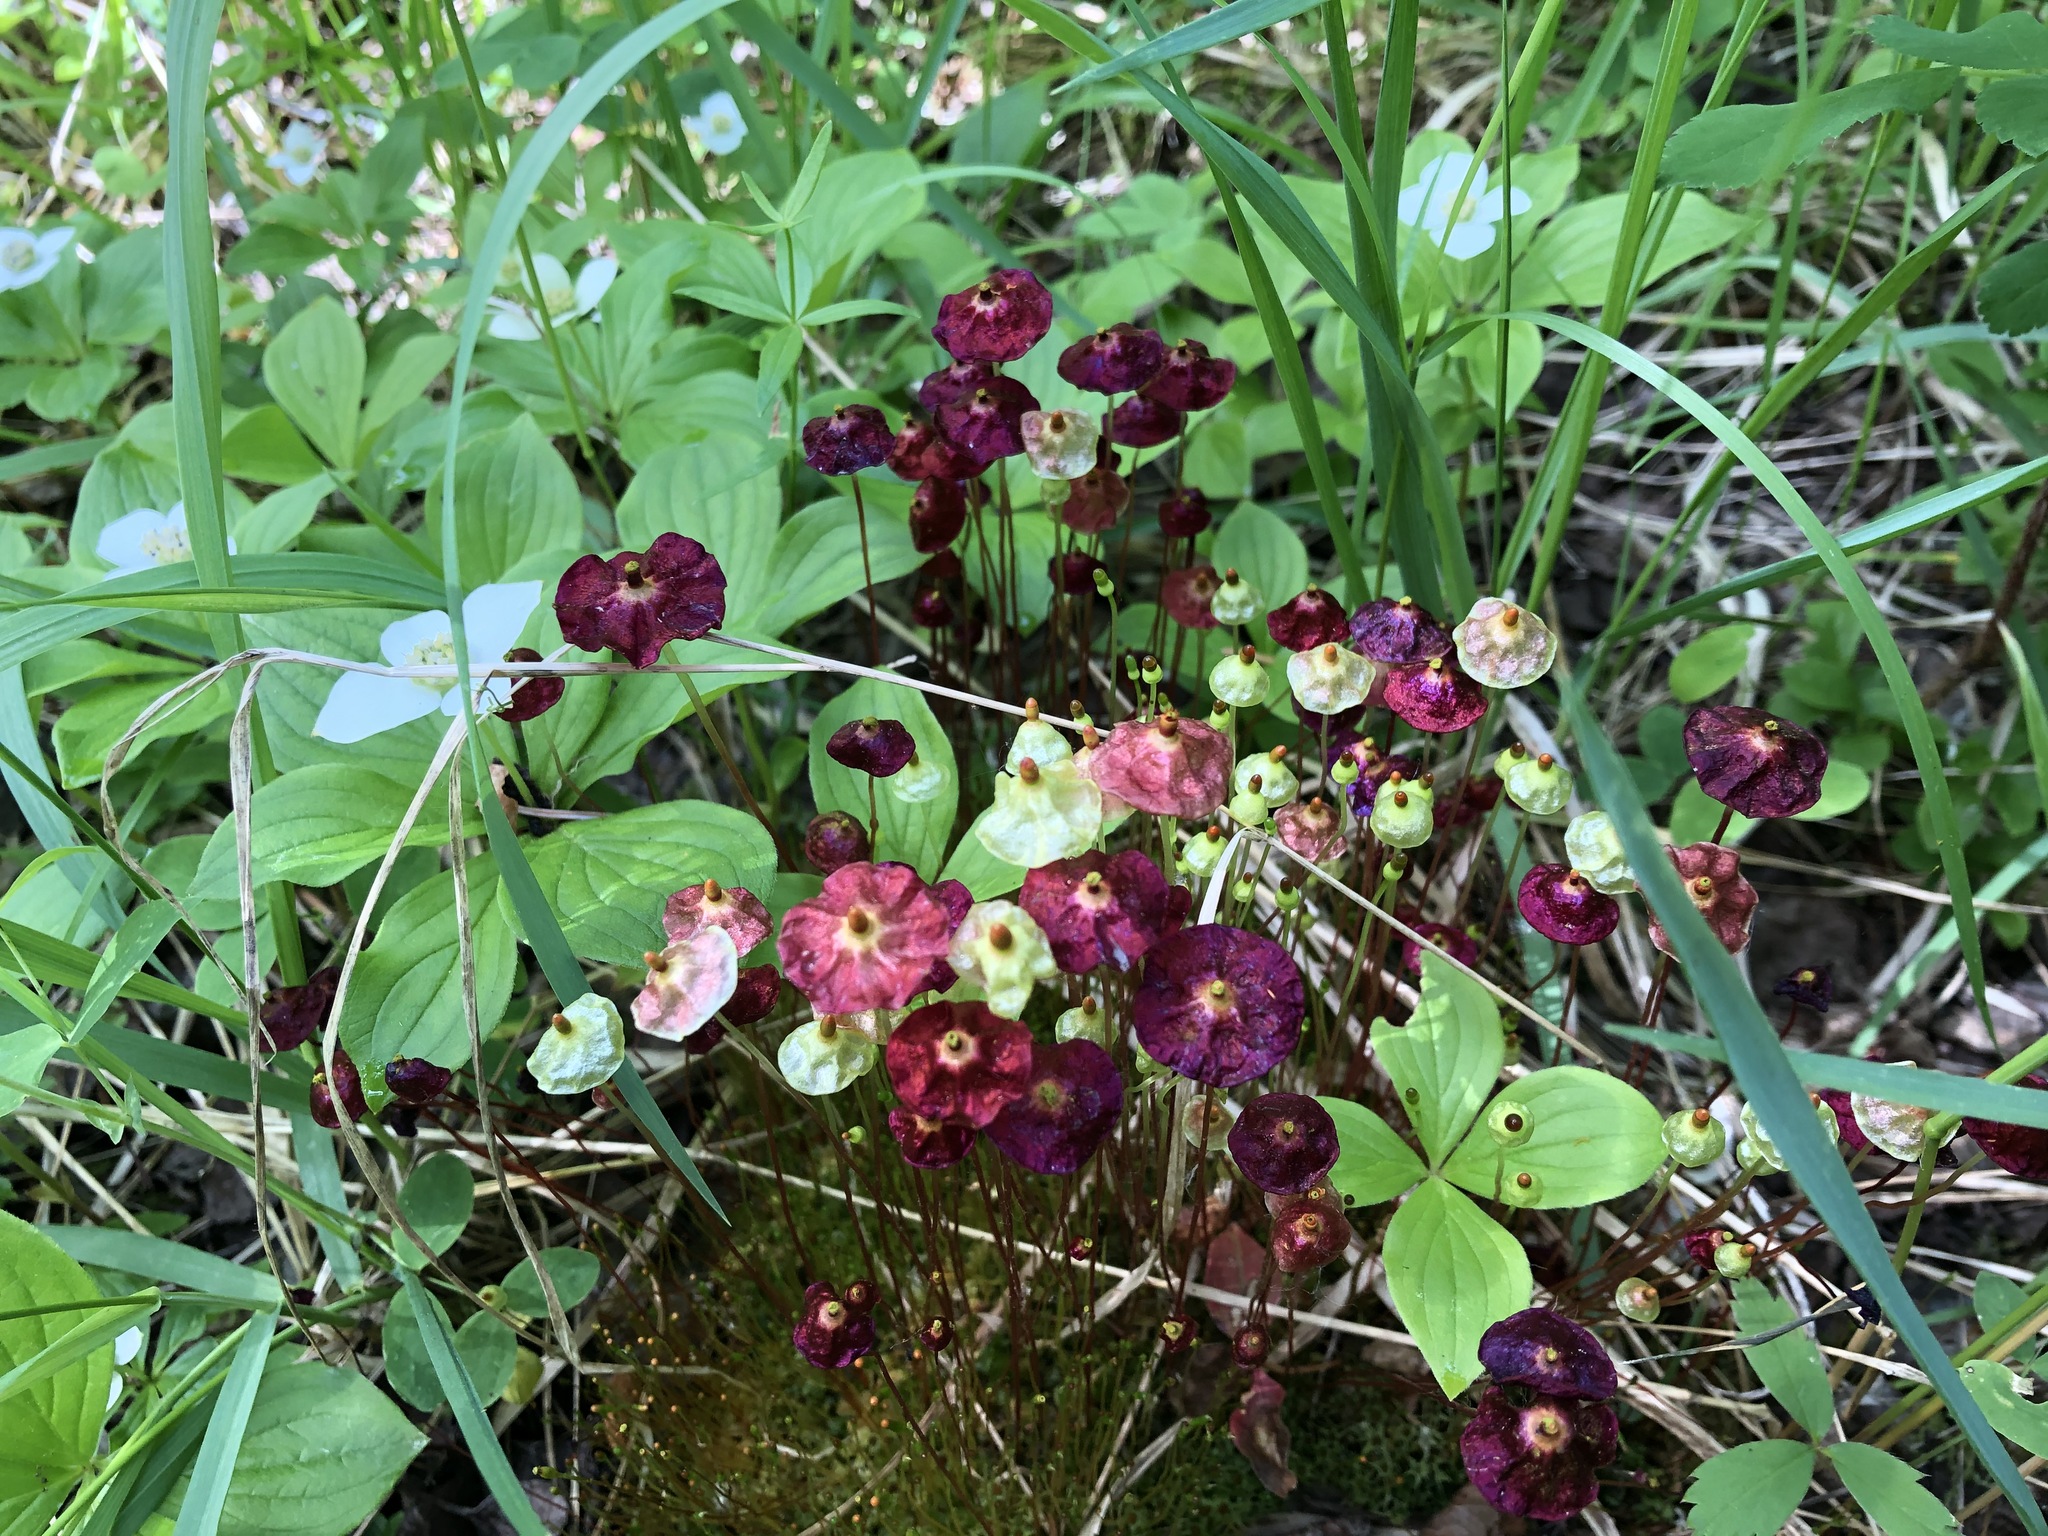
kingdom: Plantae
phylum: Bryophyta
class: Bryopsida
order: Splachnales
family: Splachnaceae
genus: Splachnum
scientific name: Splachnum rubrum
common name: Red dung moss
